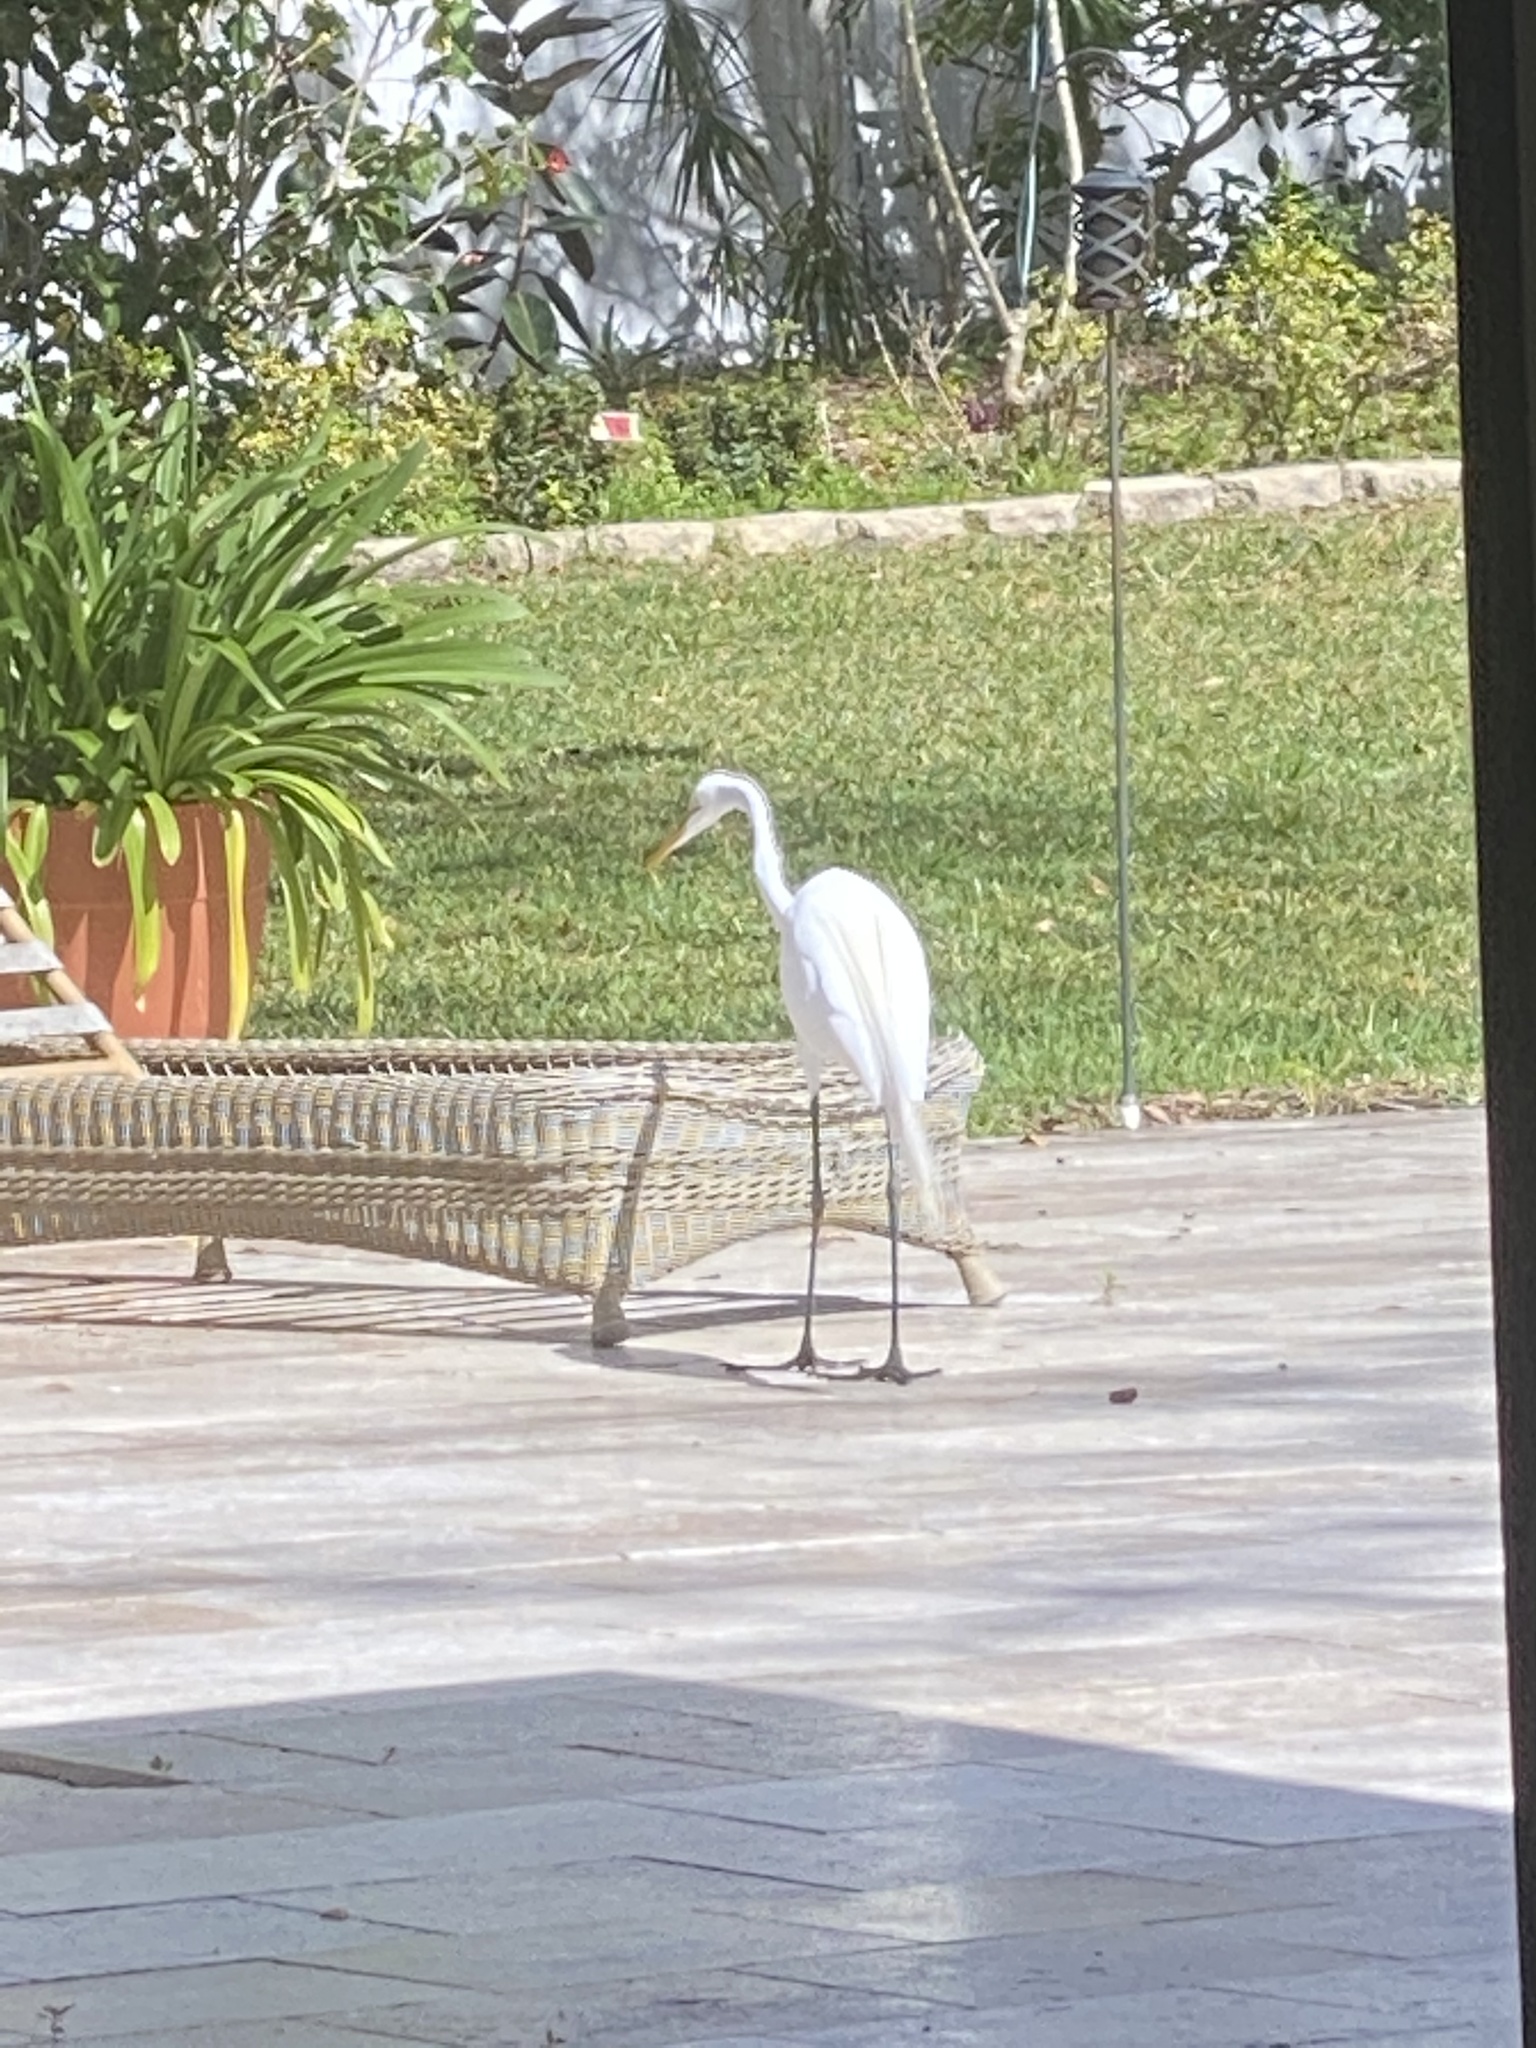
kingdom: Animalia
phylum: Chordata
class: Aves
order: Pelecaniformes
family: Ardeidae
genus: Ardea
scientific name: Ardea alba
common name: Great egret
